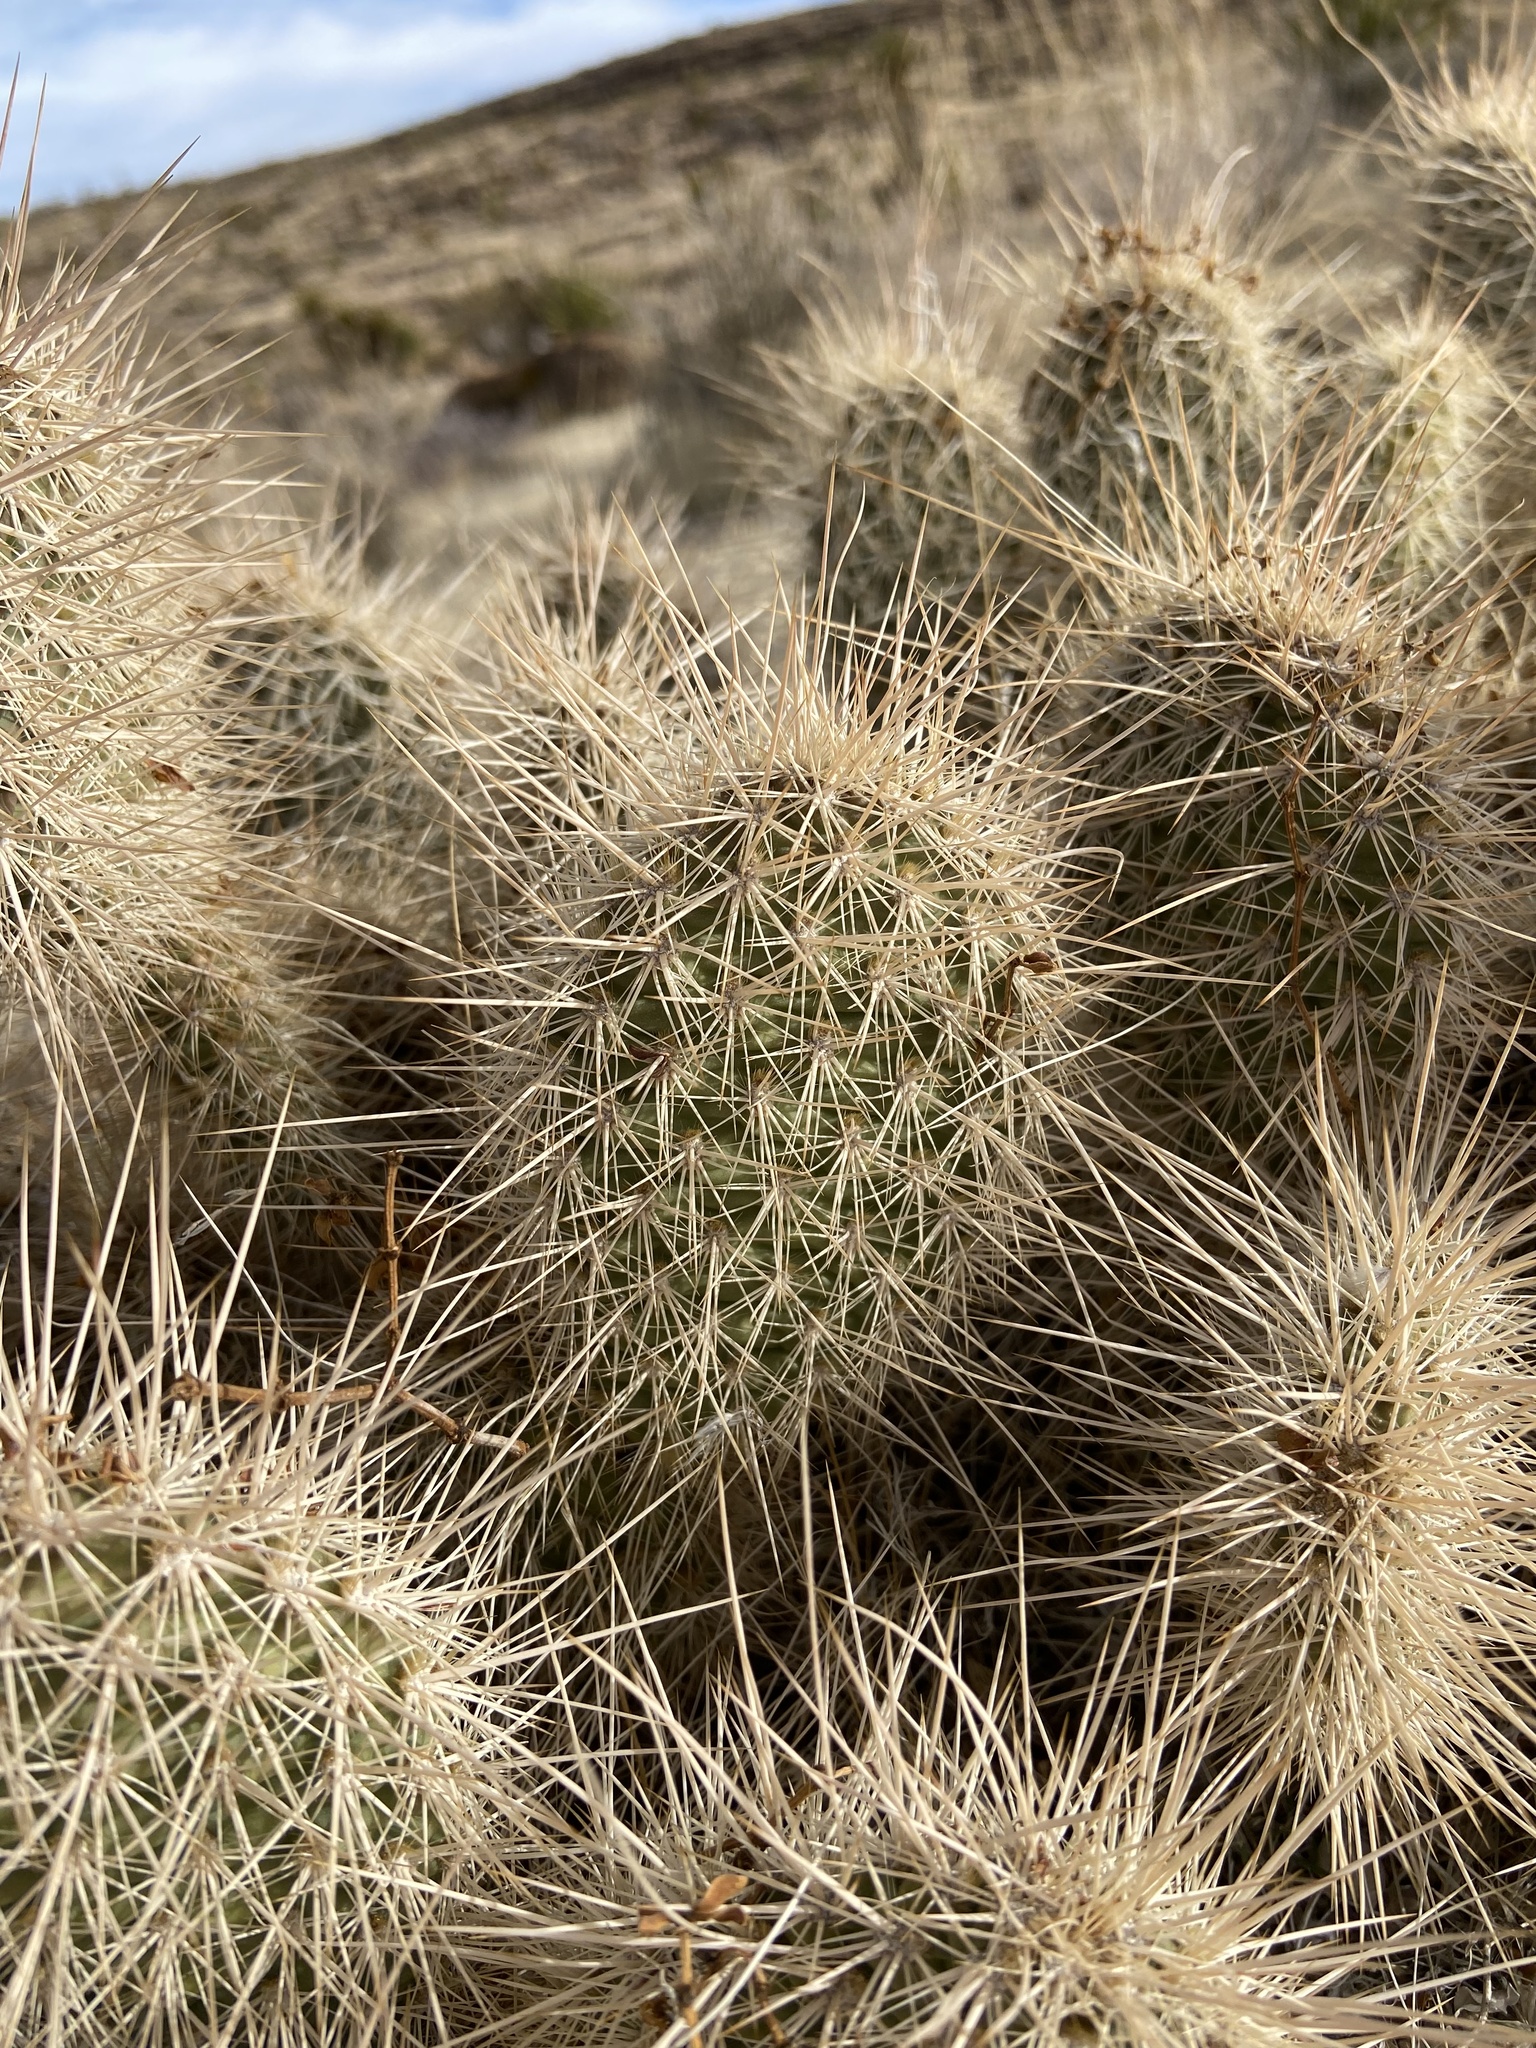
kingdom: Plantae
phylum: Tracheophyta
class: Magnoliopsida
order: Caryophyllales
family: Cactaceae
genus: Opuntia
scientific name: Opuntia polyacantha
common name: Plains prickly-pear
